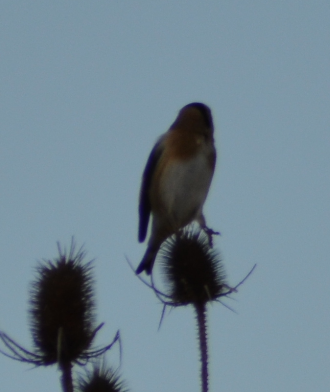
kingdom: Animalia
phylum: Chordata
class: Aves
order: Passeriformes
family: Fringillidae
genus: Carduelis
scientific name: Carduelis carduelis
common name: European goldfinch
